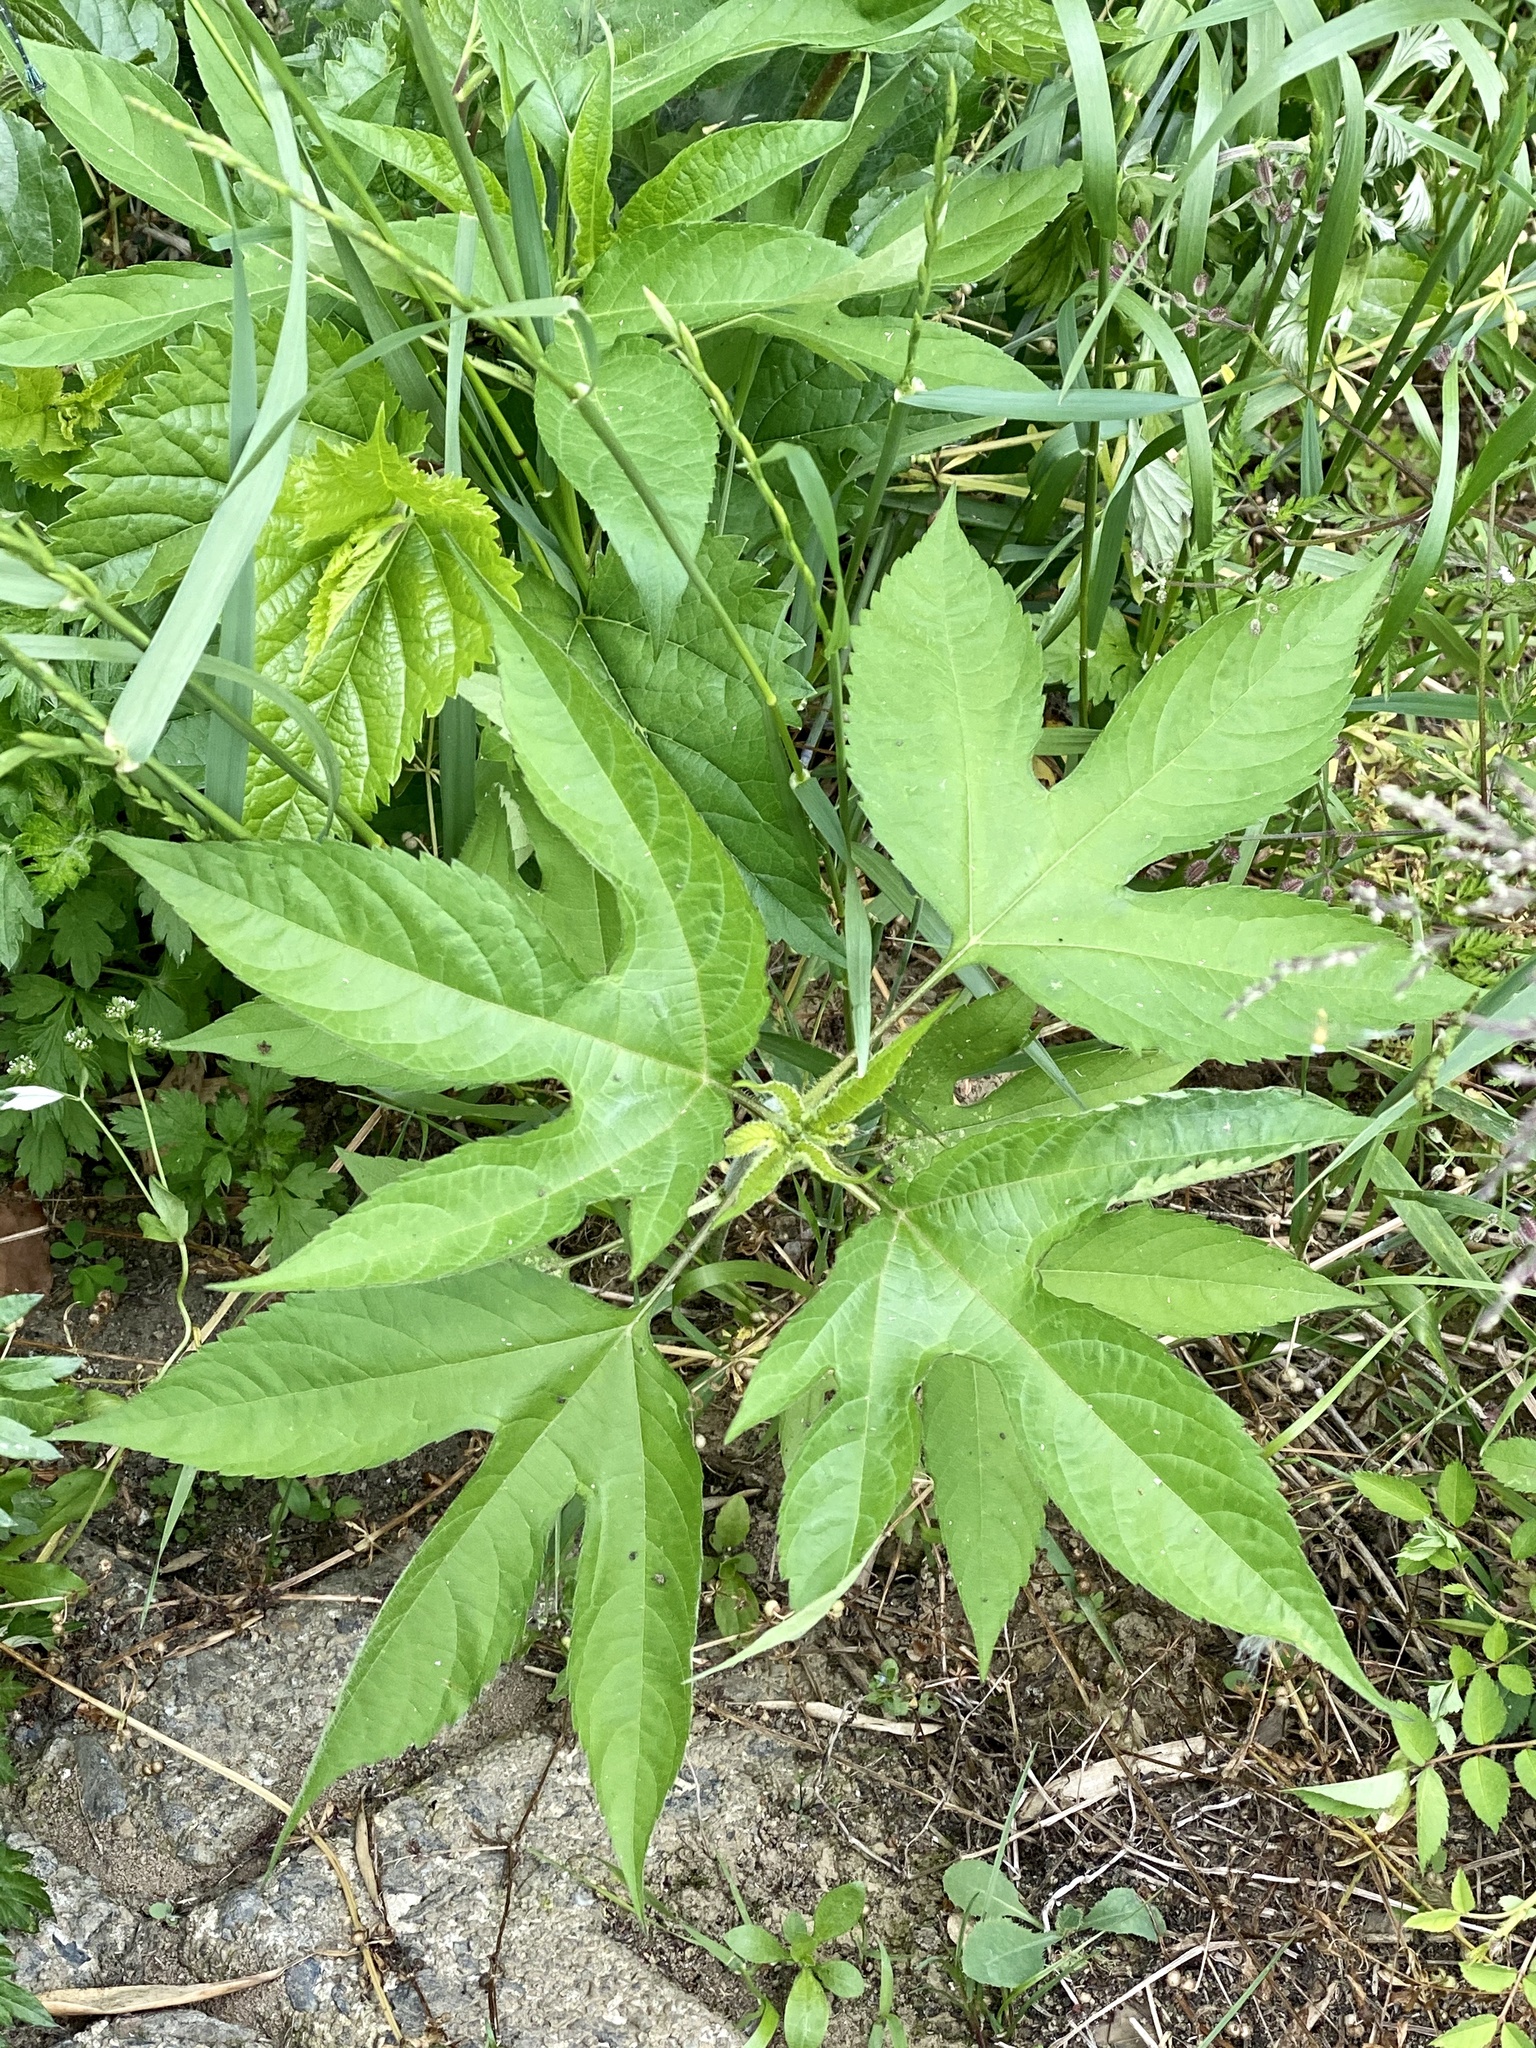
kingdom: Plantae
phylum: Tracheophyta
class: Magnoliopsida
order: Asterales
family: Asteraceae
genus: Ambrosia
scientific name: Ambrosia trifida
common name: Giant ragweed
